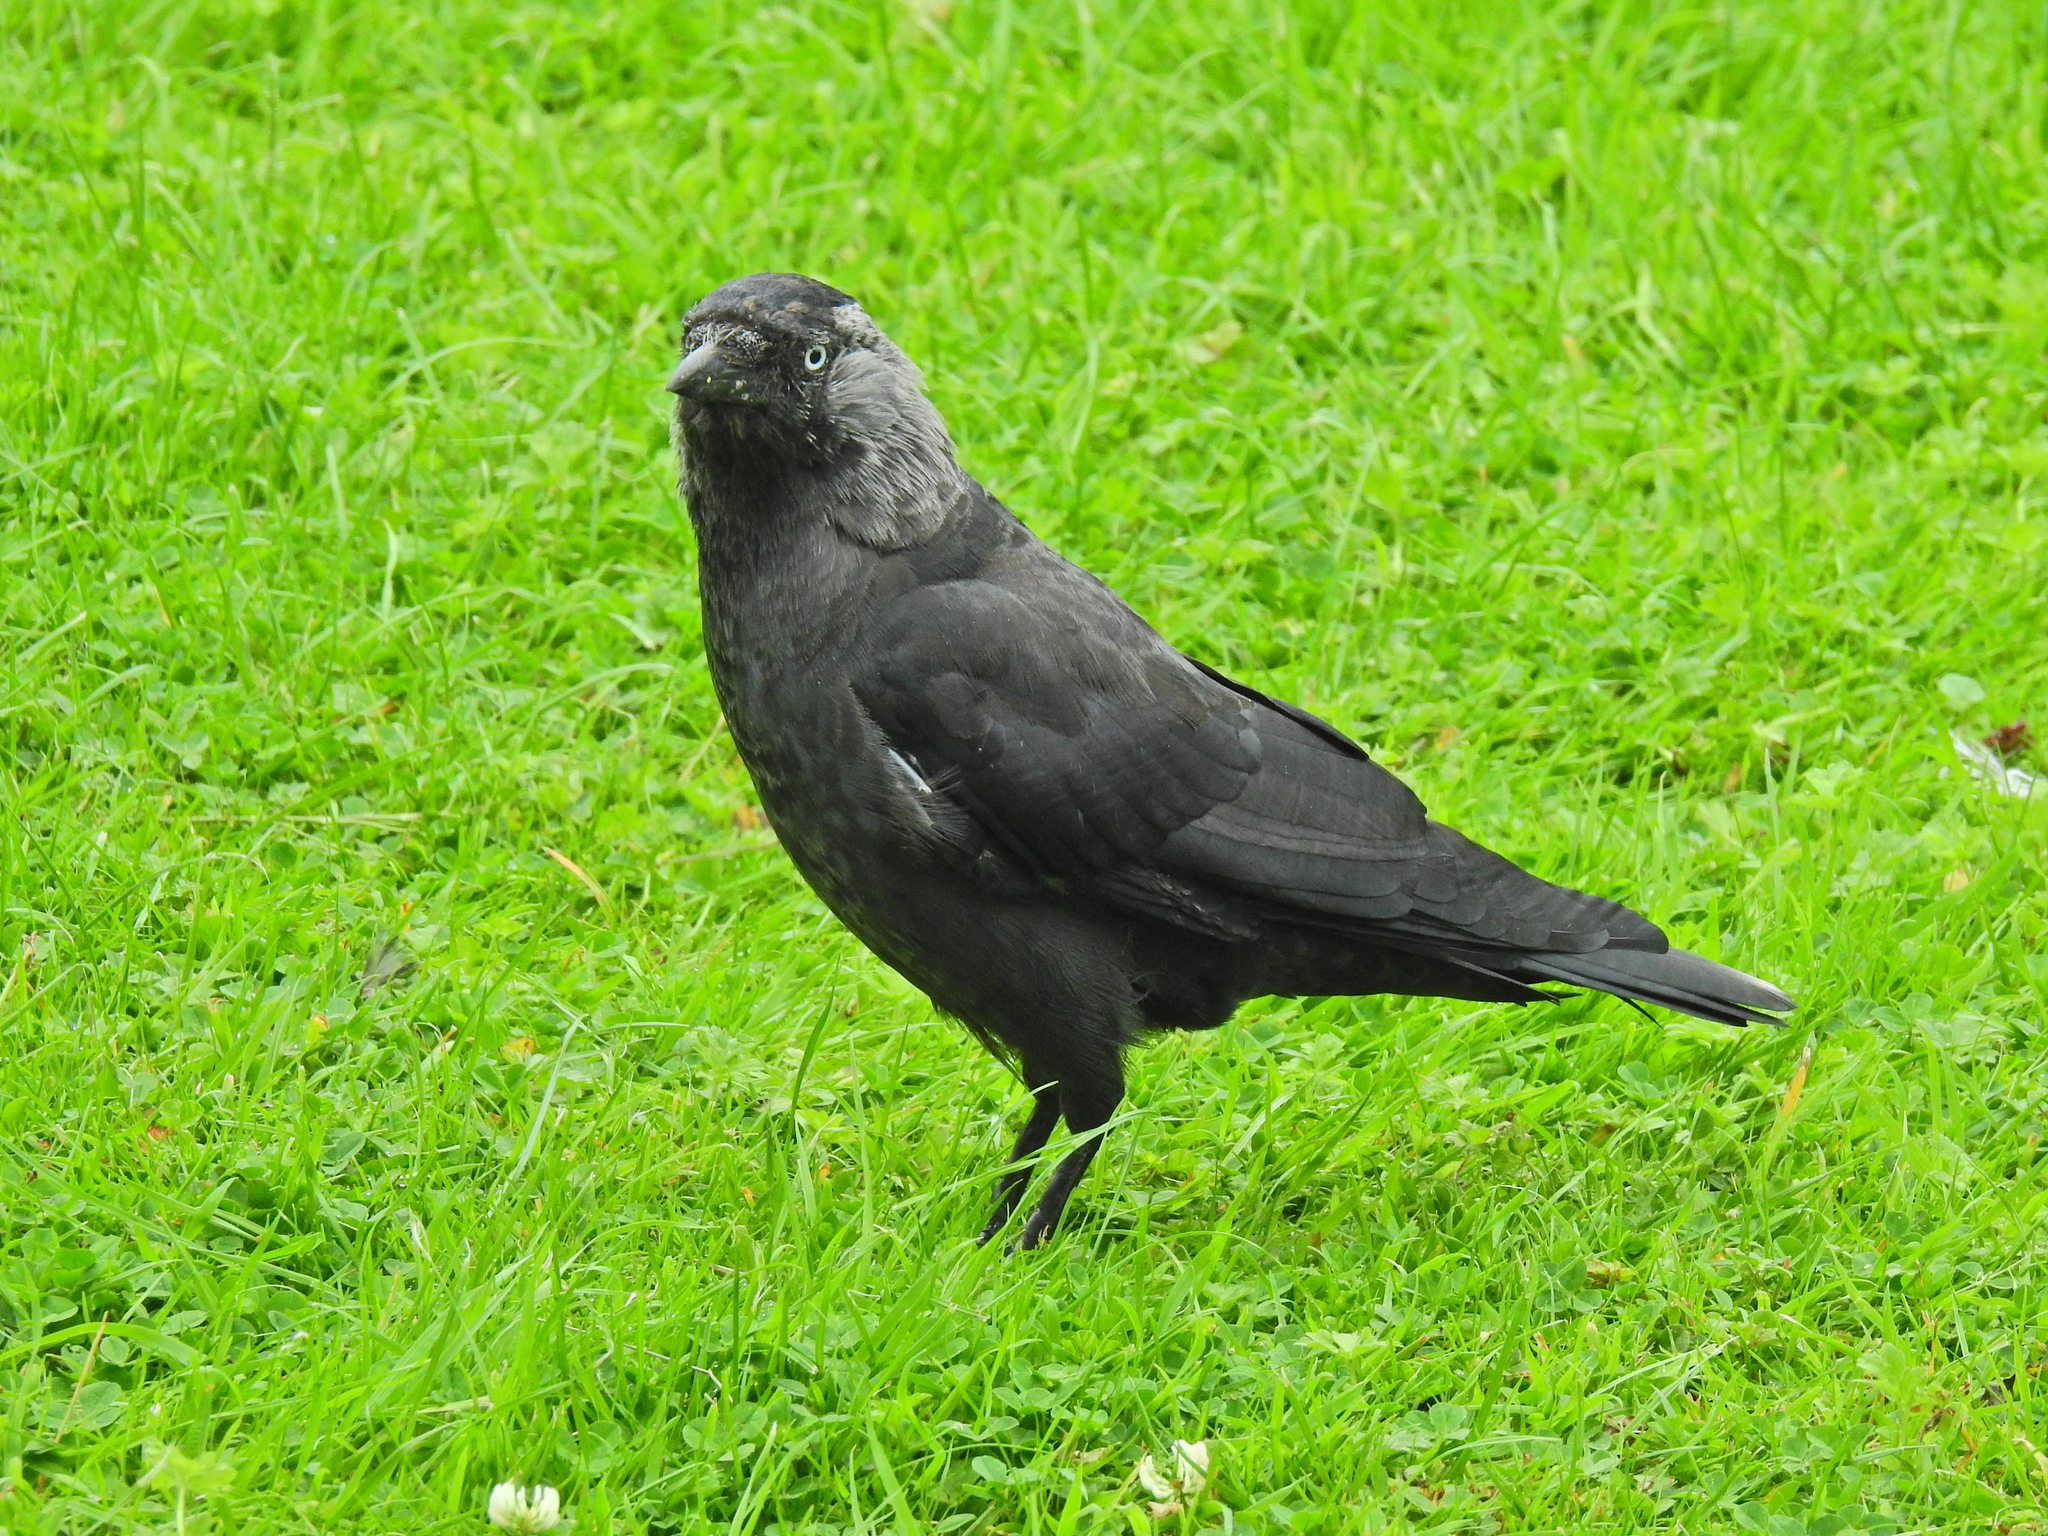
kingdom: Animalia
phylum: Chordata
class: Aves
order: Passeriformes
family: Corvidae
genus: Coloeus
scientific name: Coloeus monedula
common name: Western jackdaw
